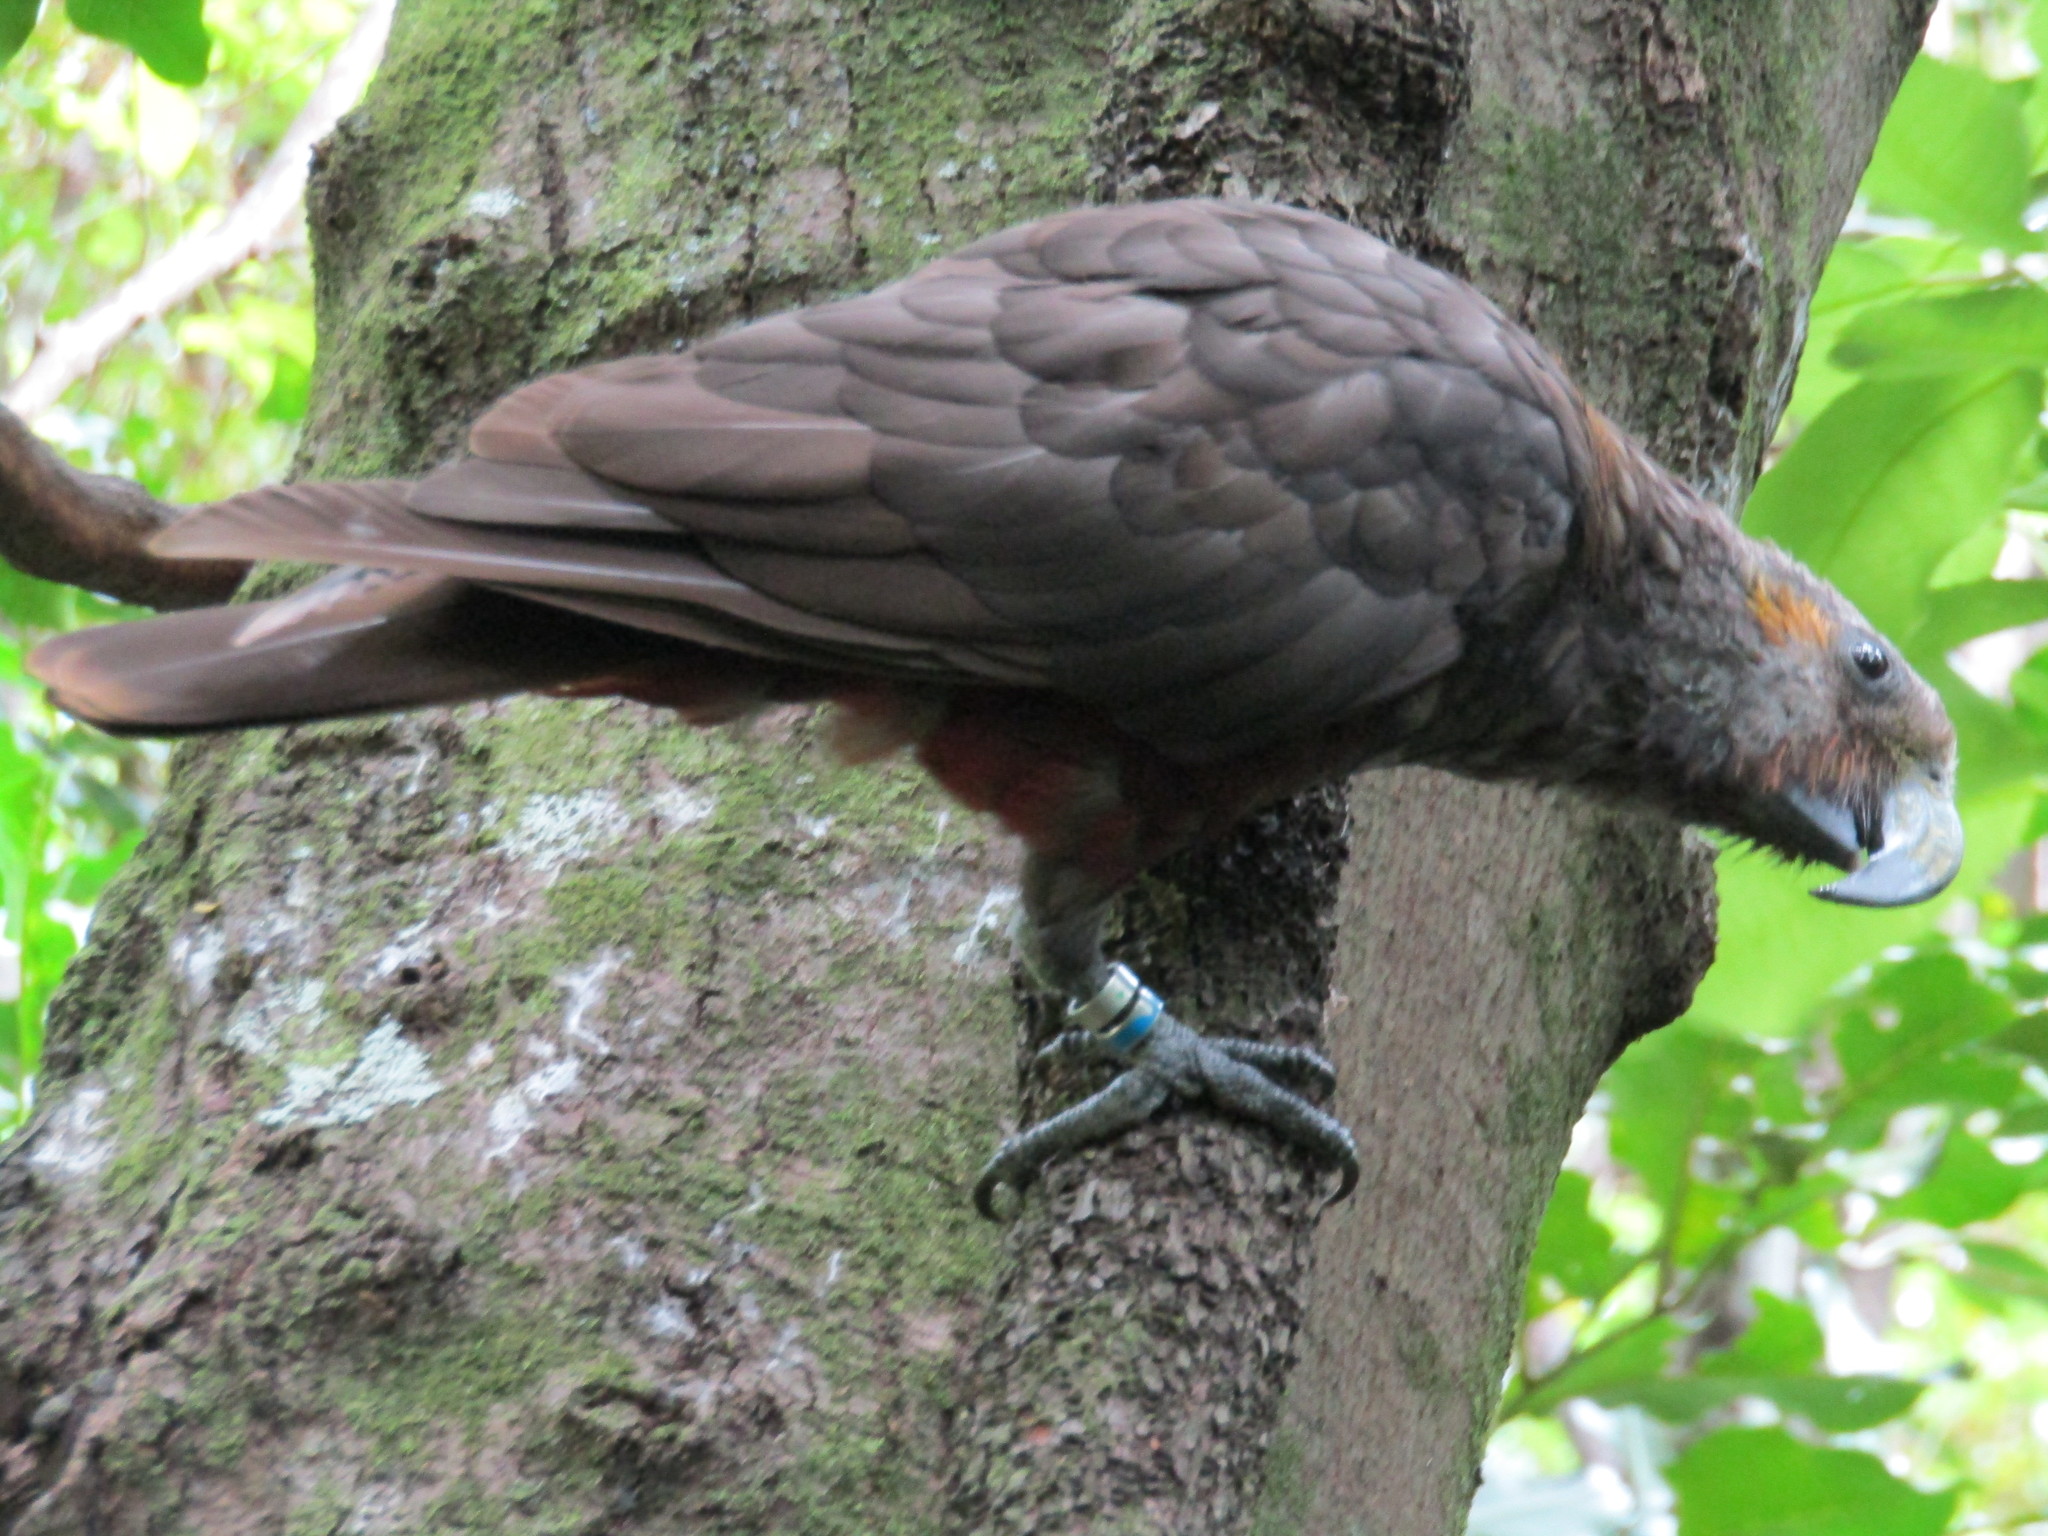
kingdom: Animalia
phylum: Chordata
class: Aves
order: Psittaciformes
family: Psittacidae
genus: Nestor
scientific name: Nestor meridionalis
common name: New zealand kaka
